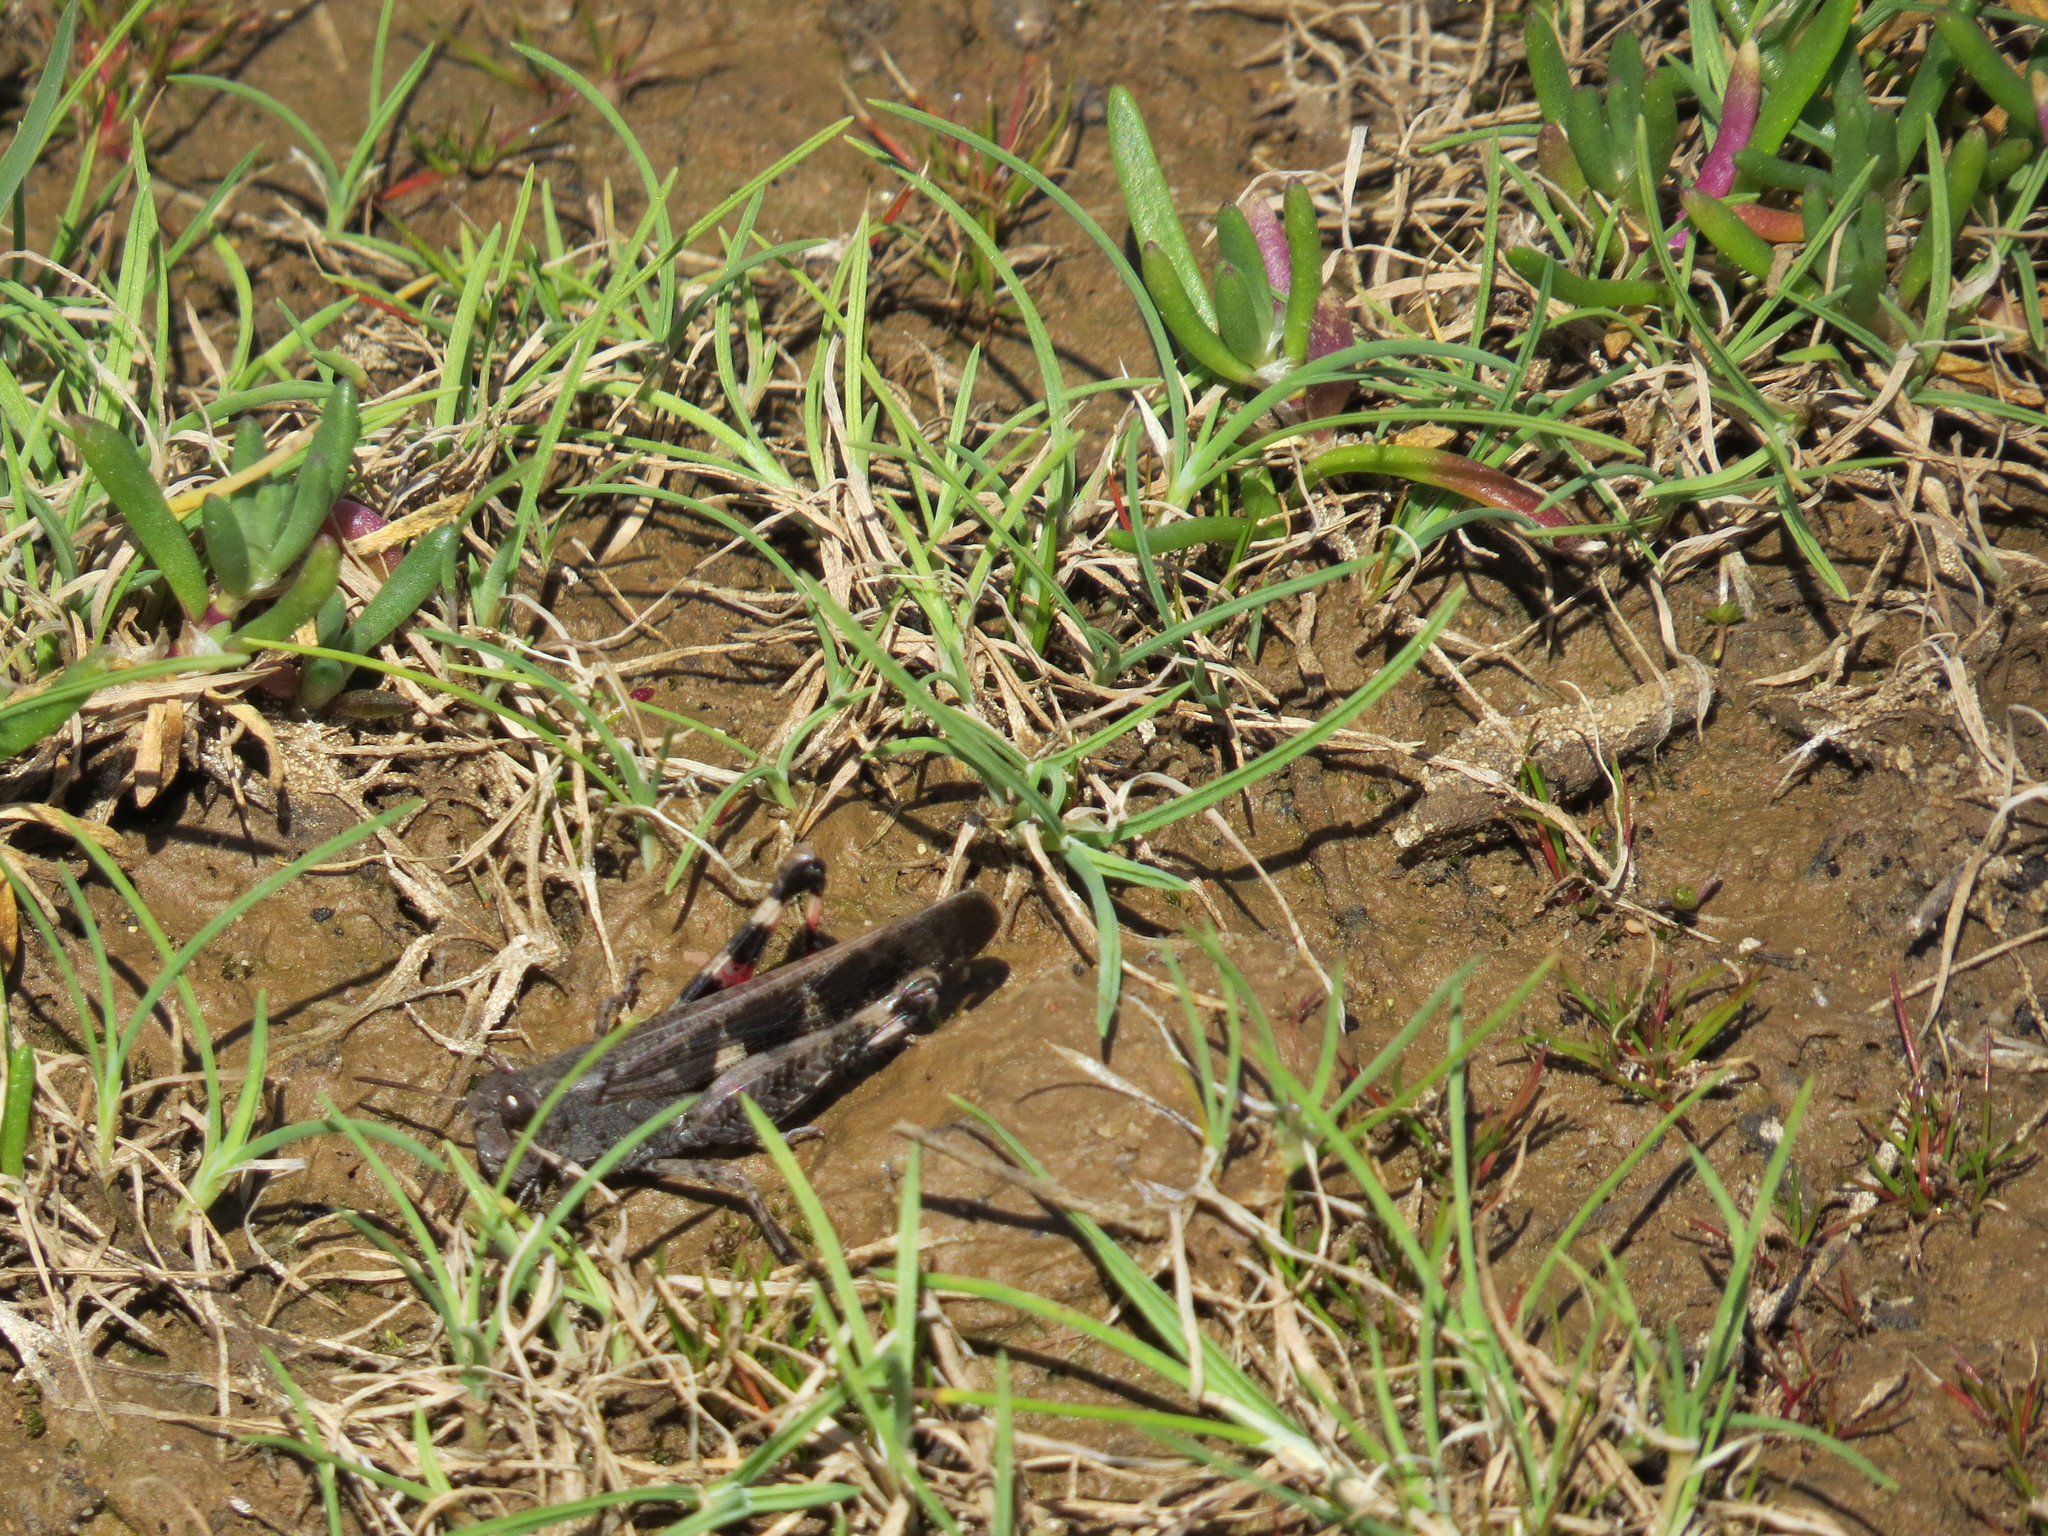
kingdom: Animalia
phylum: Arthropoda
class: Insecta
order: Orthoptera
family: Acrididae
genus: Aiolopus
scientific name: Aiolopus strepens
